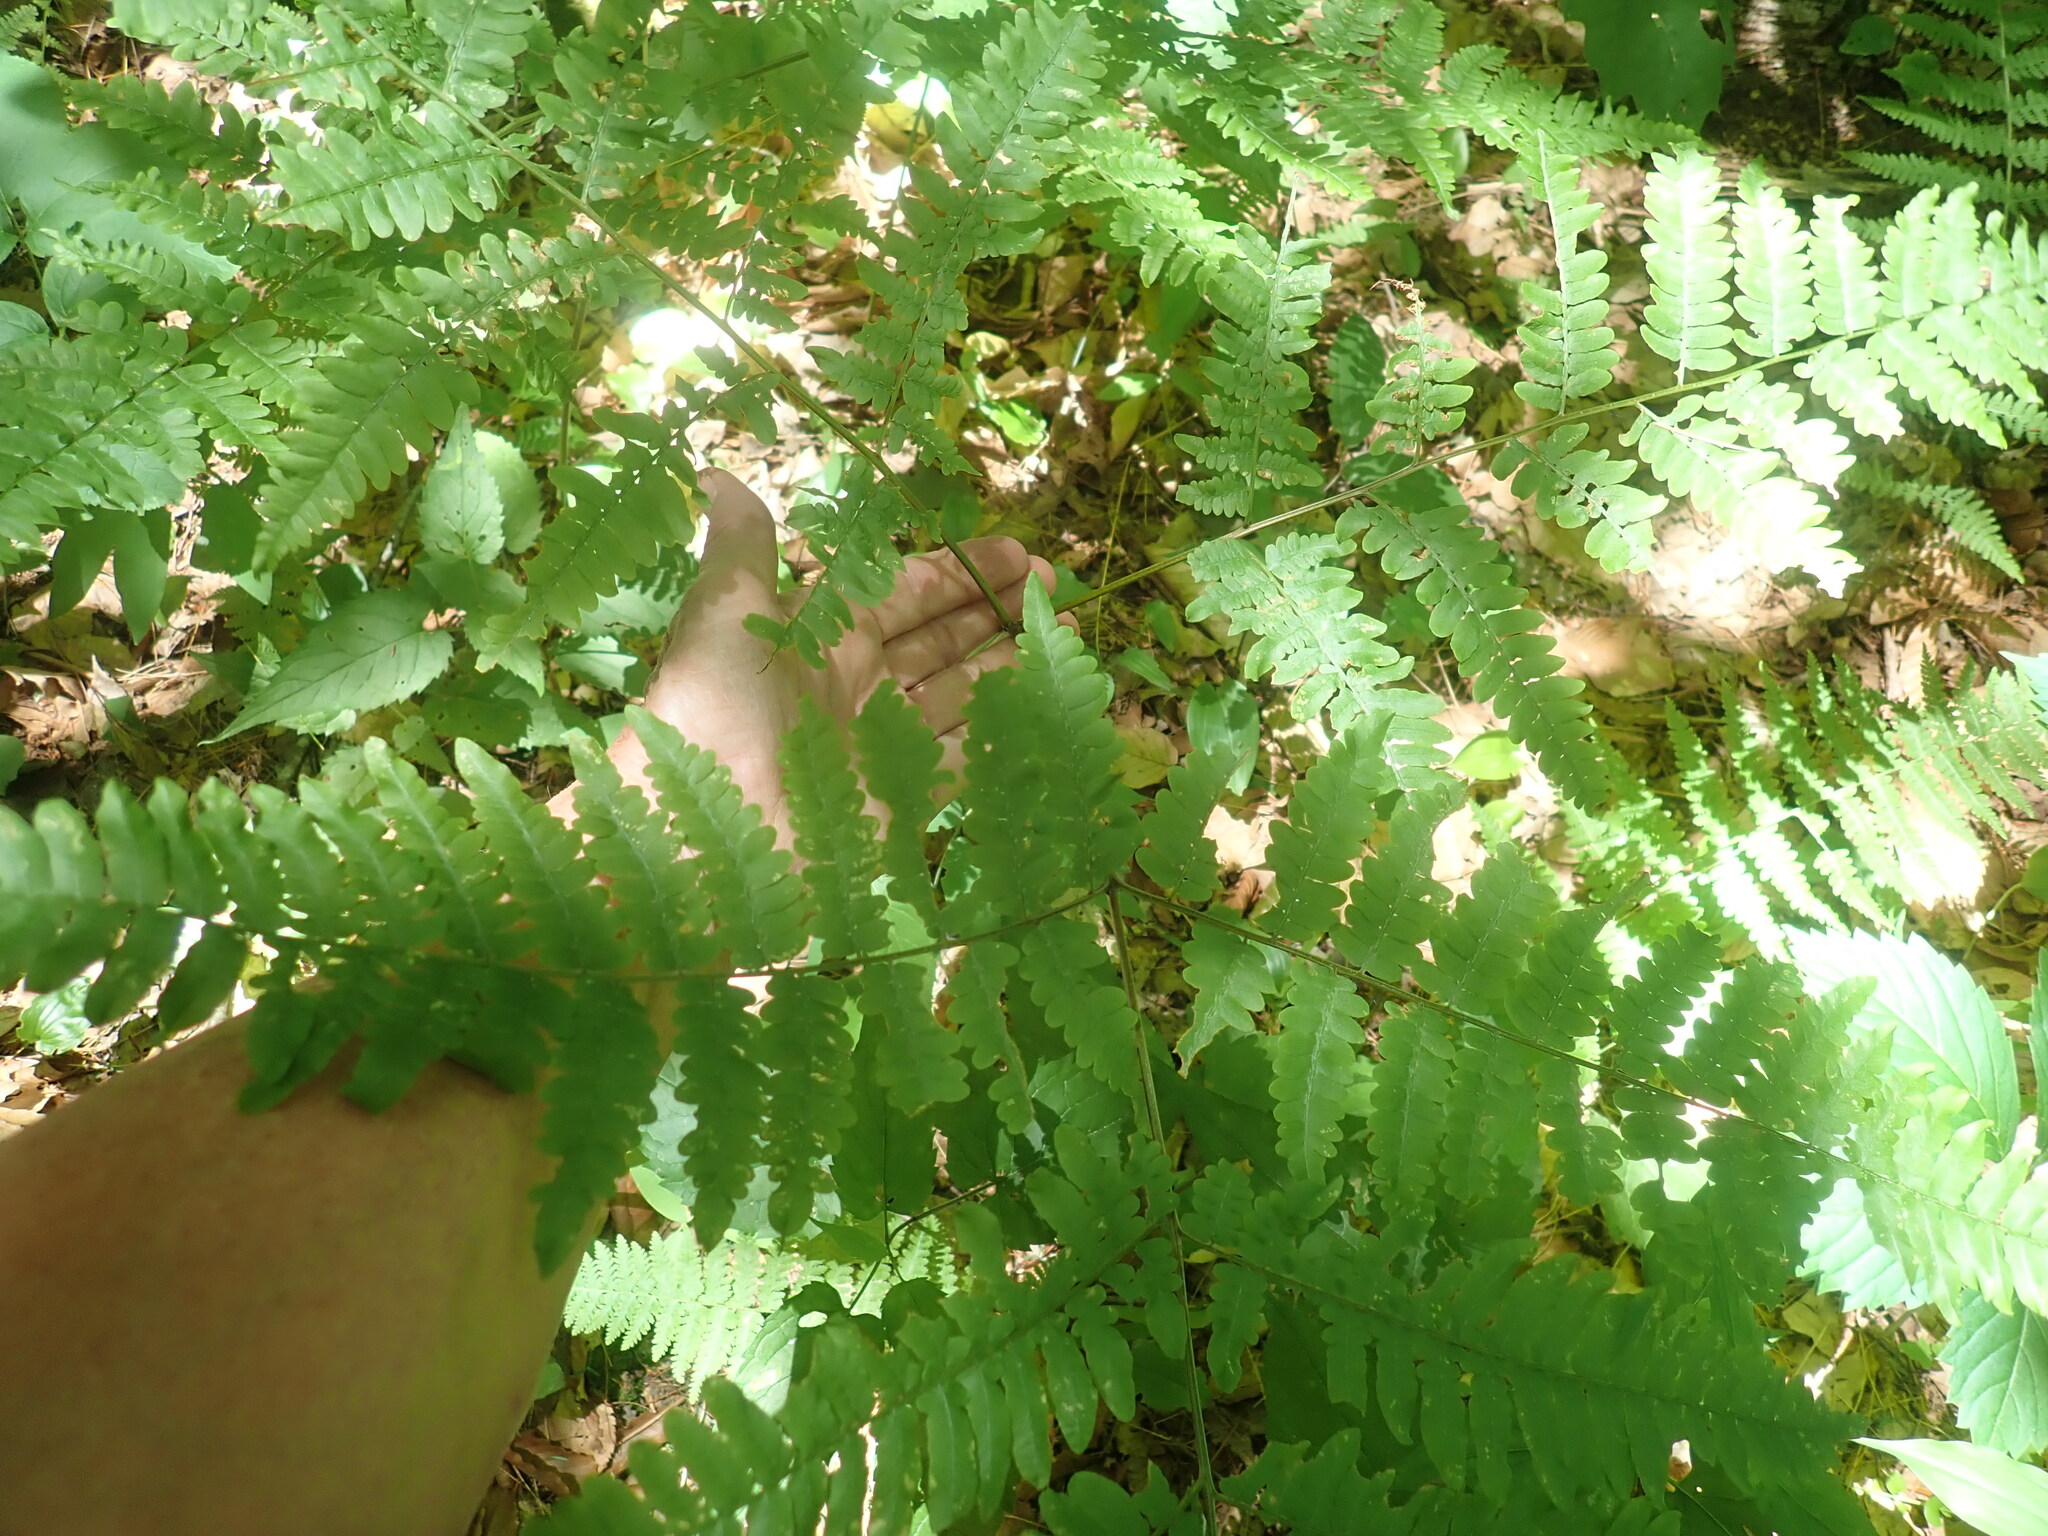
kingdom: Plantae
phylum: Tracheophyta
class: Polypodiopsida
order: Polypodiales
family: Dennstaedtiaceae
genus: Pteridium
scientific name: Pteridium aquilinum
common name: Bracken
